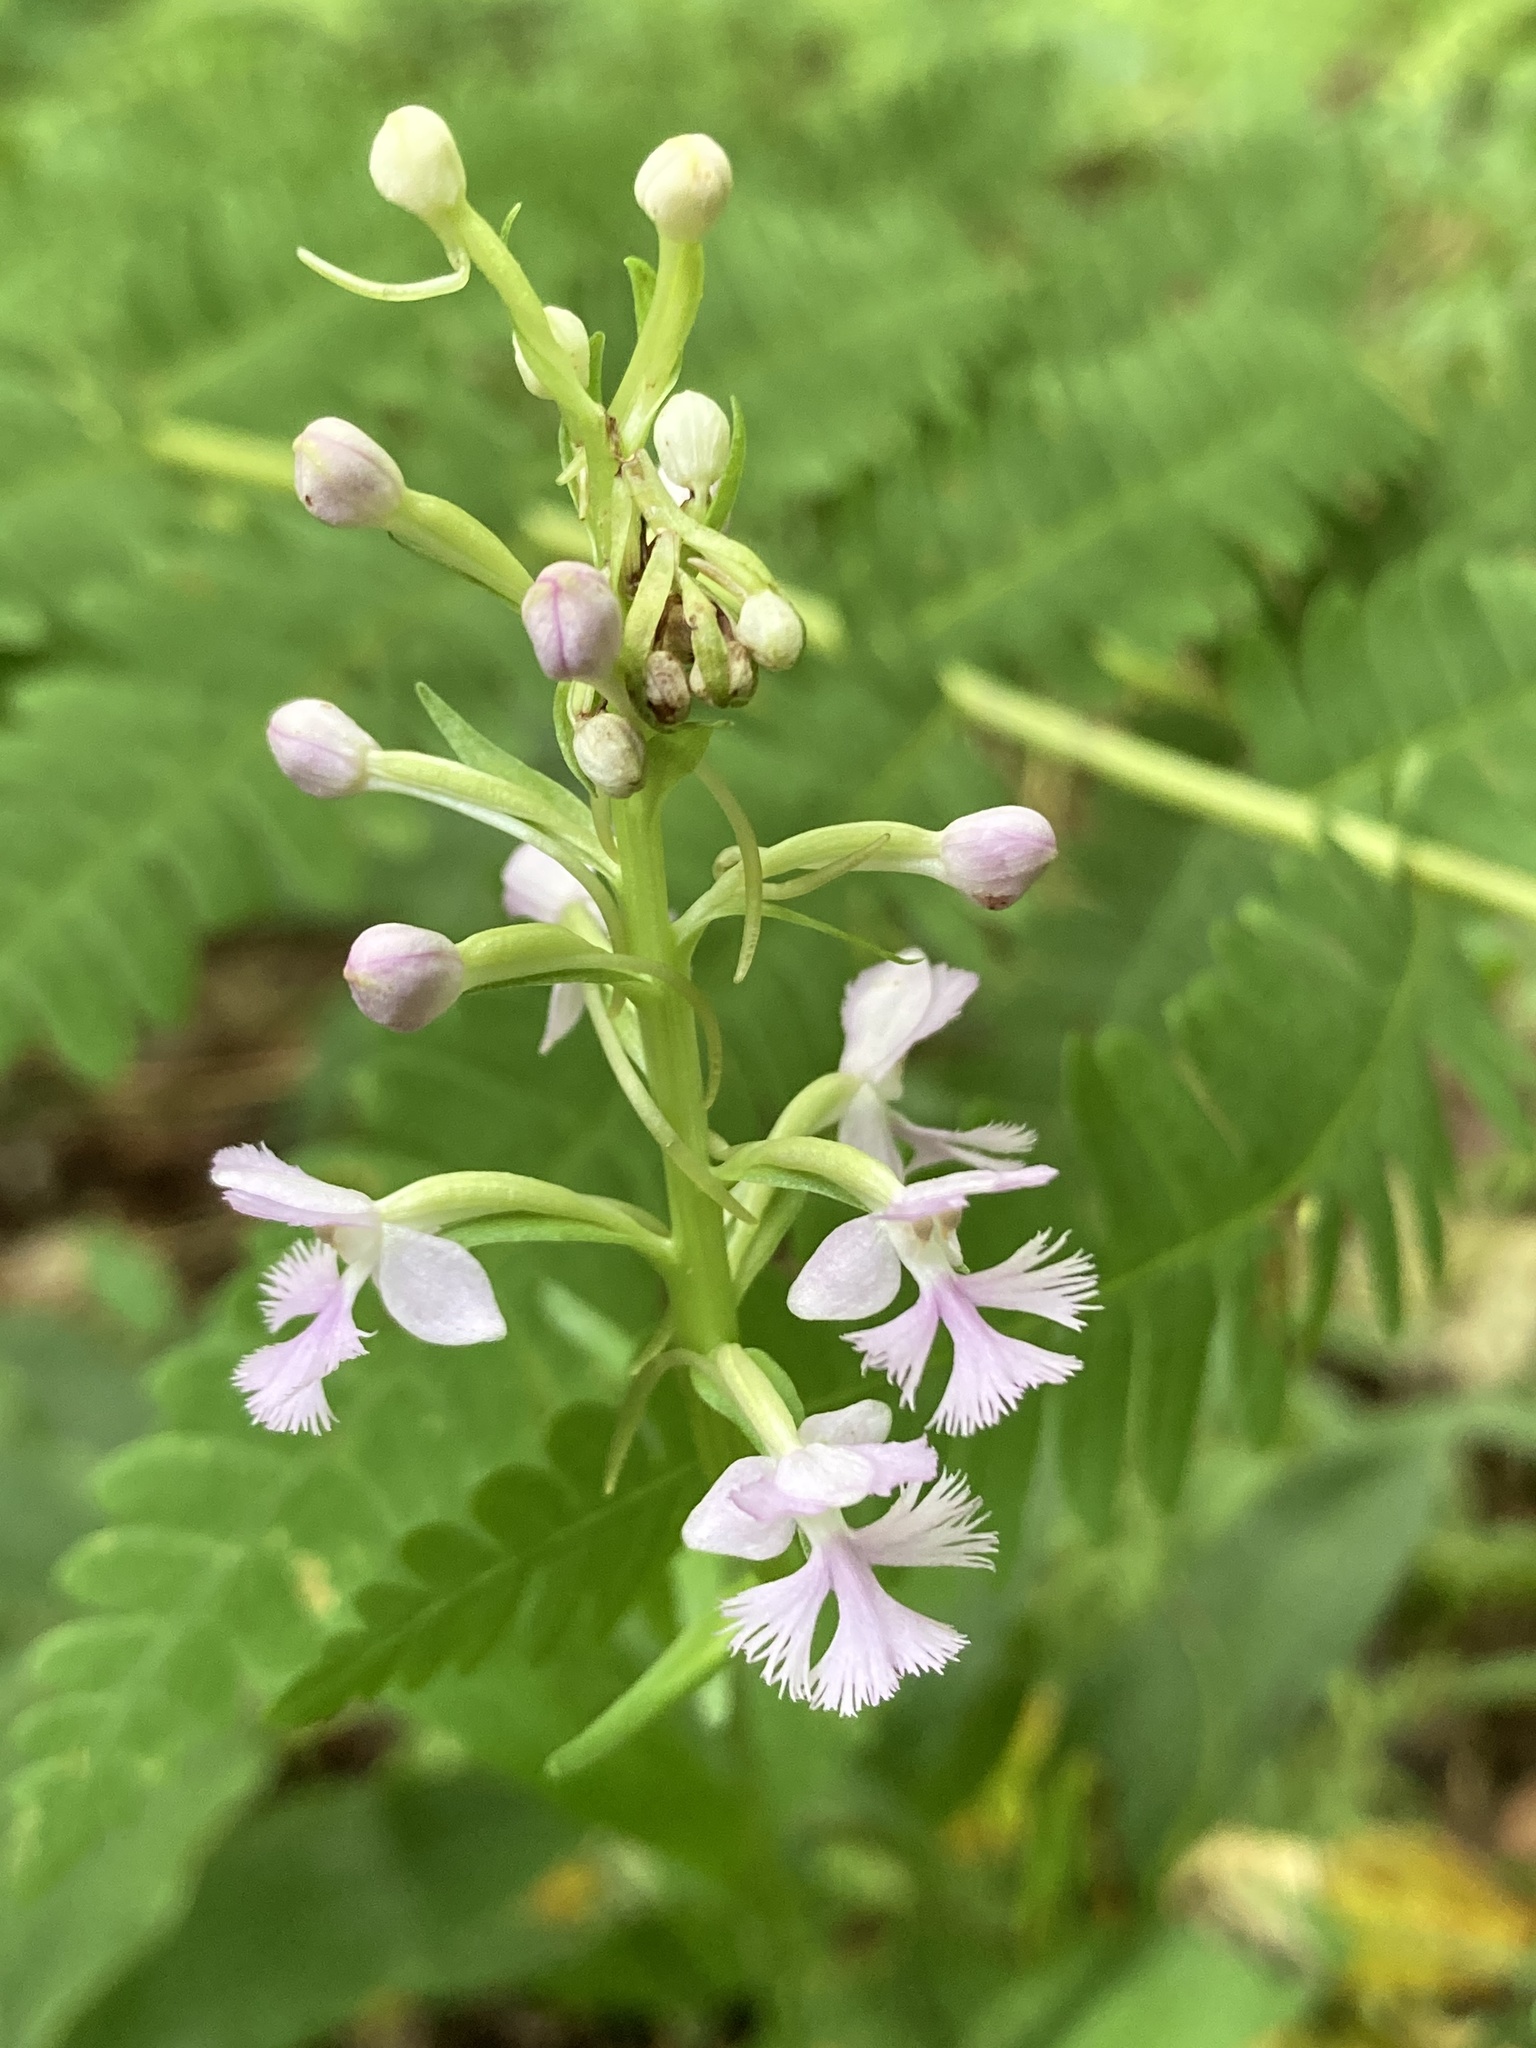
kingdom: Plantae
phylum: Tracheophyta
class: Liliopsida
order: Asparagales
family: Orchidaceae
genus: Platanthera
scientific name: Platanthera psycodes
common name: Lesser purple fringed orchid
